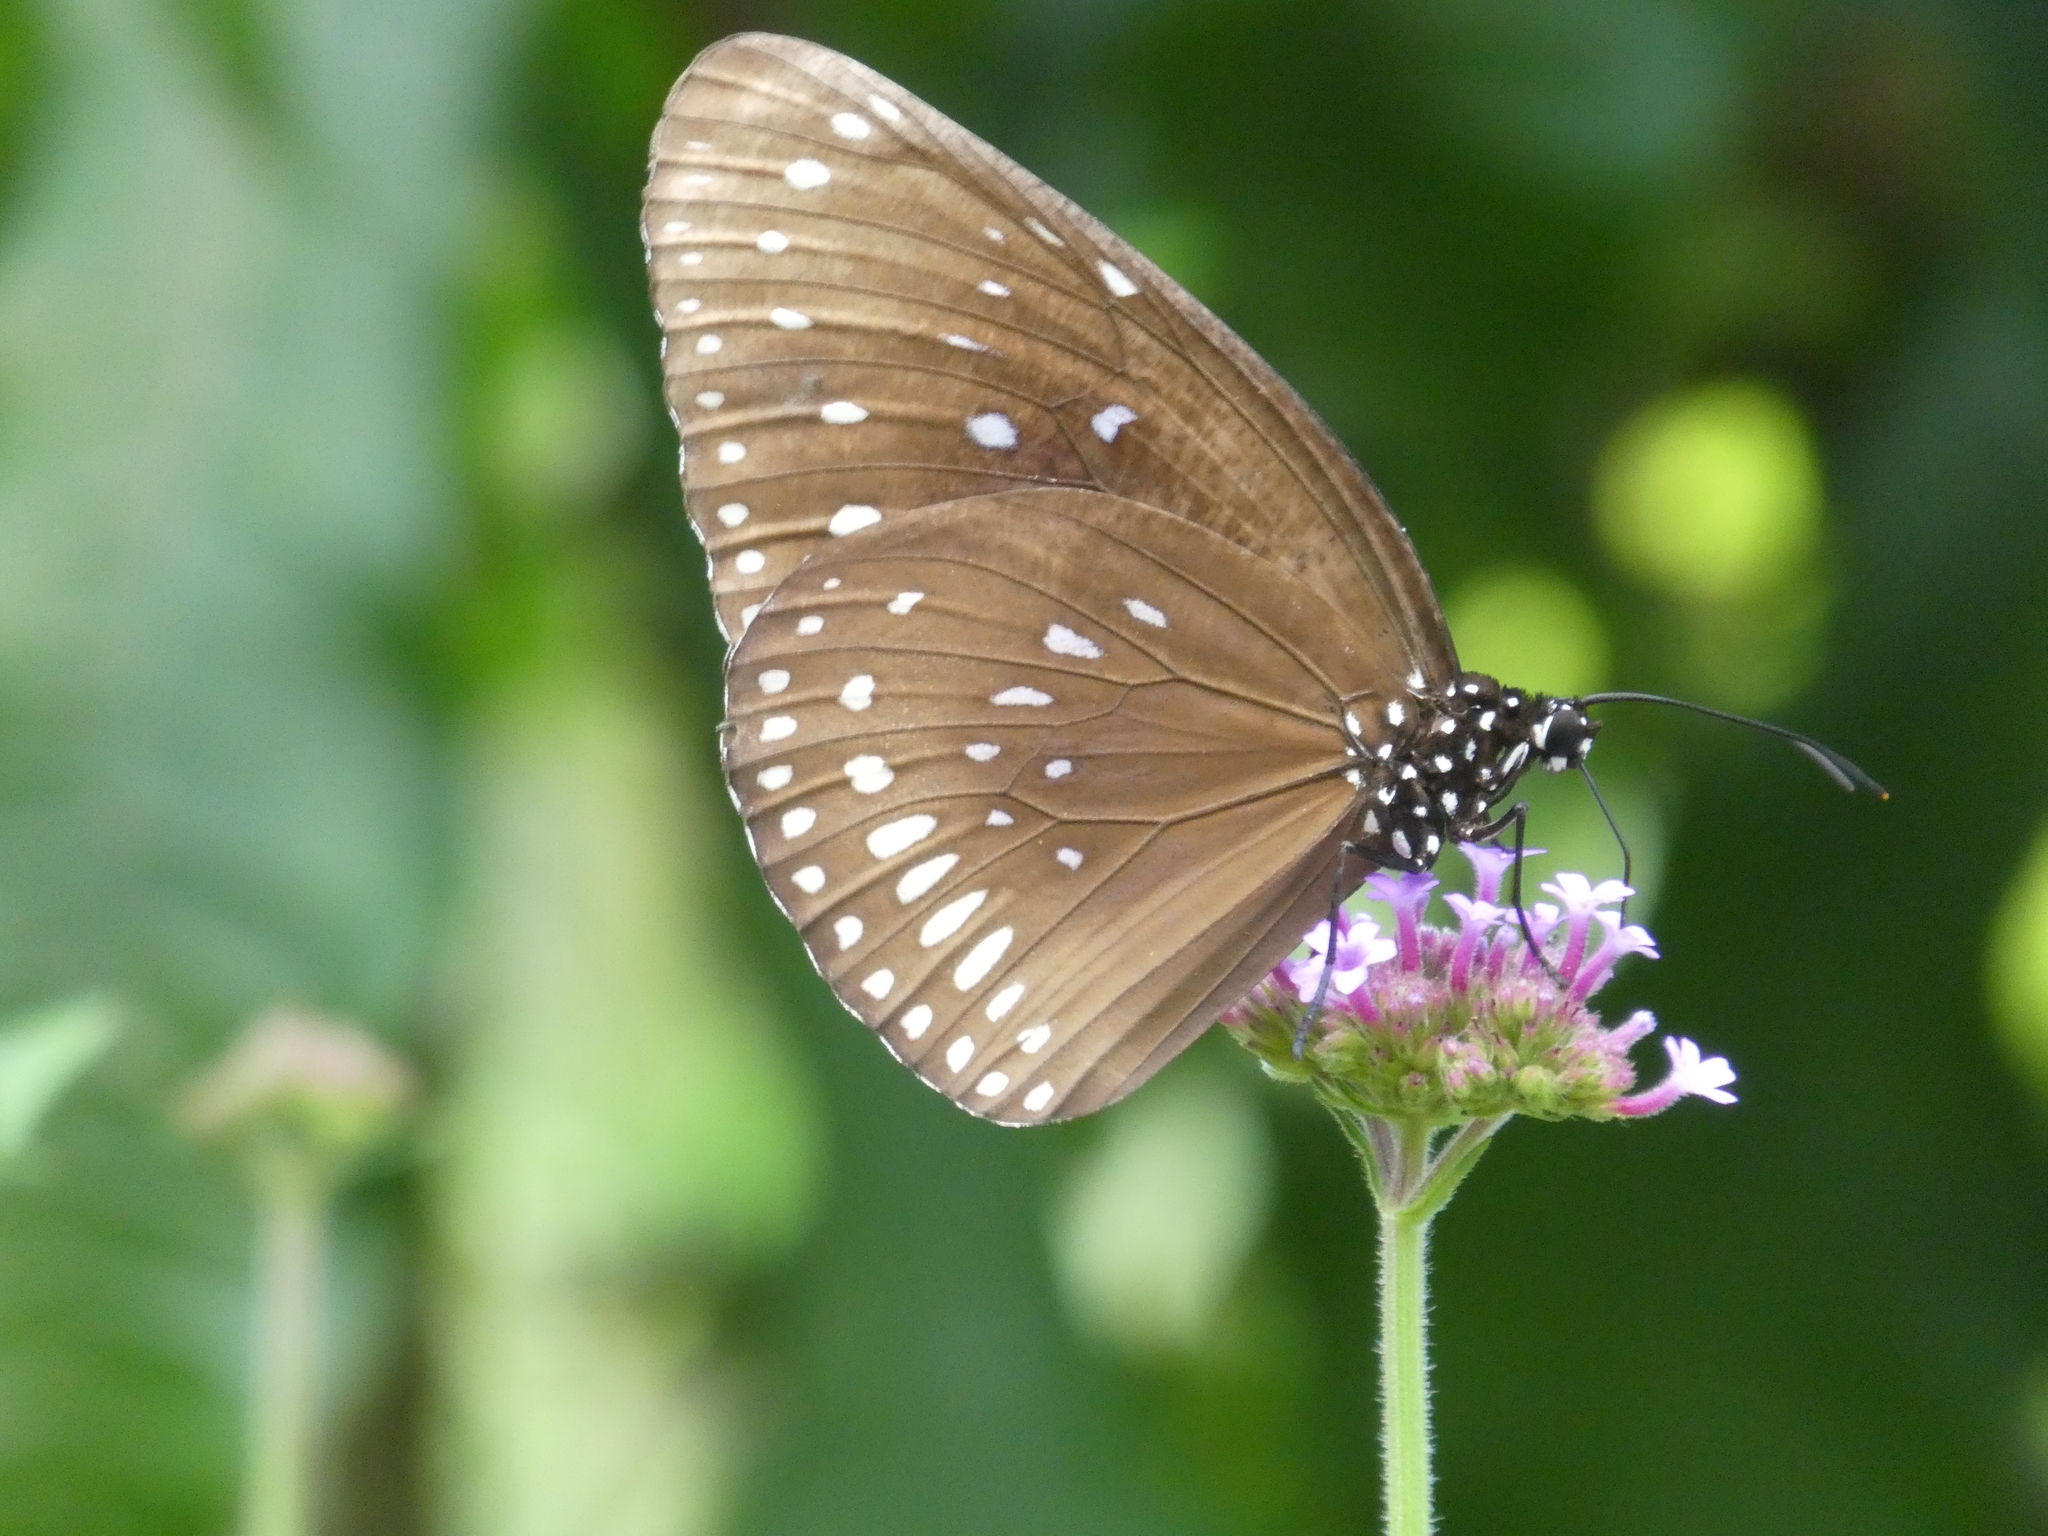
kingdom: Animalia
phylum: Arthropoda
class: Insecta
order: Lepidoptera
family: Nymphalidae
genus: Euploea
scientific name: Euploea midamus
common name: Blue-spotted crow butterfly
